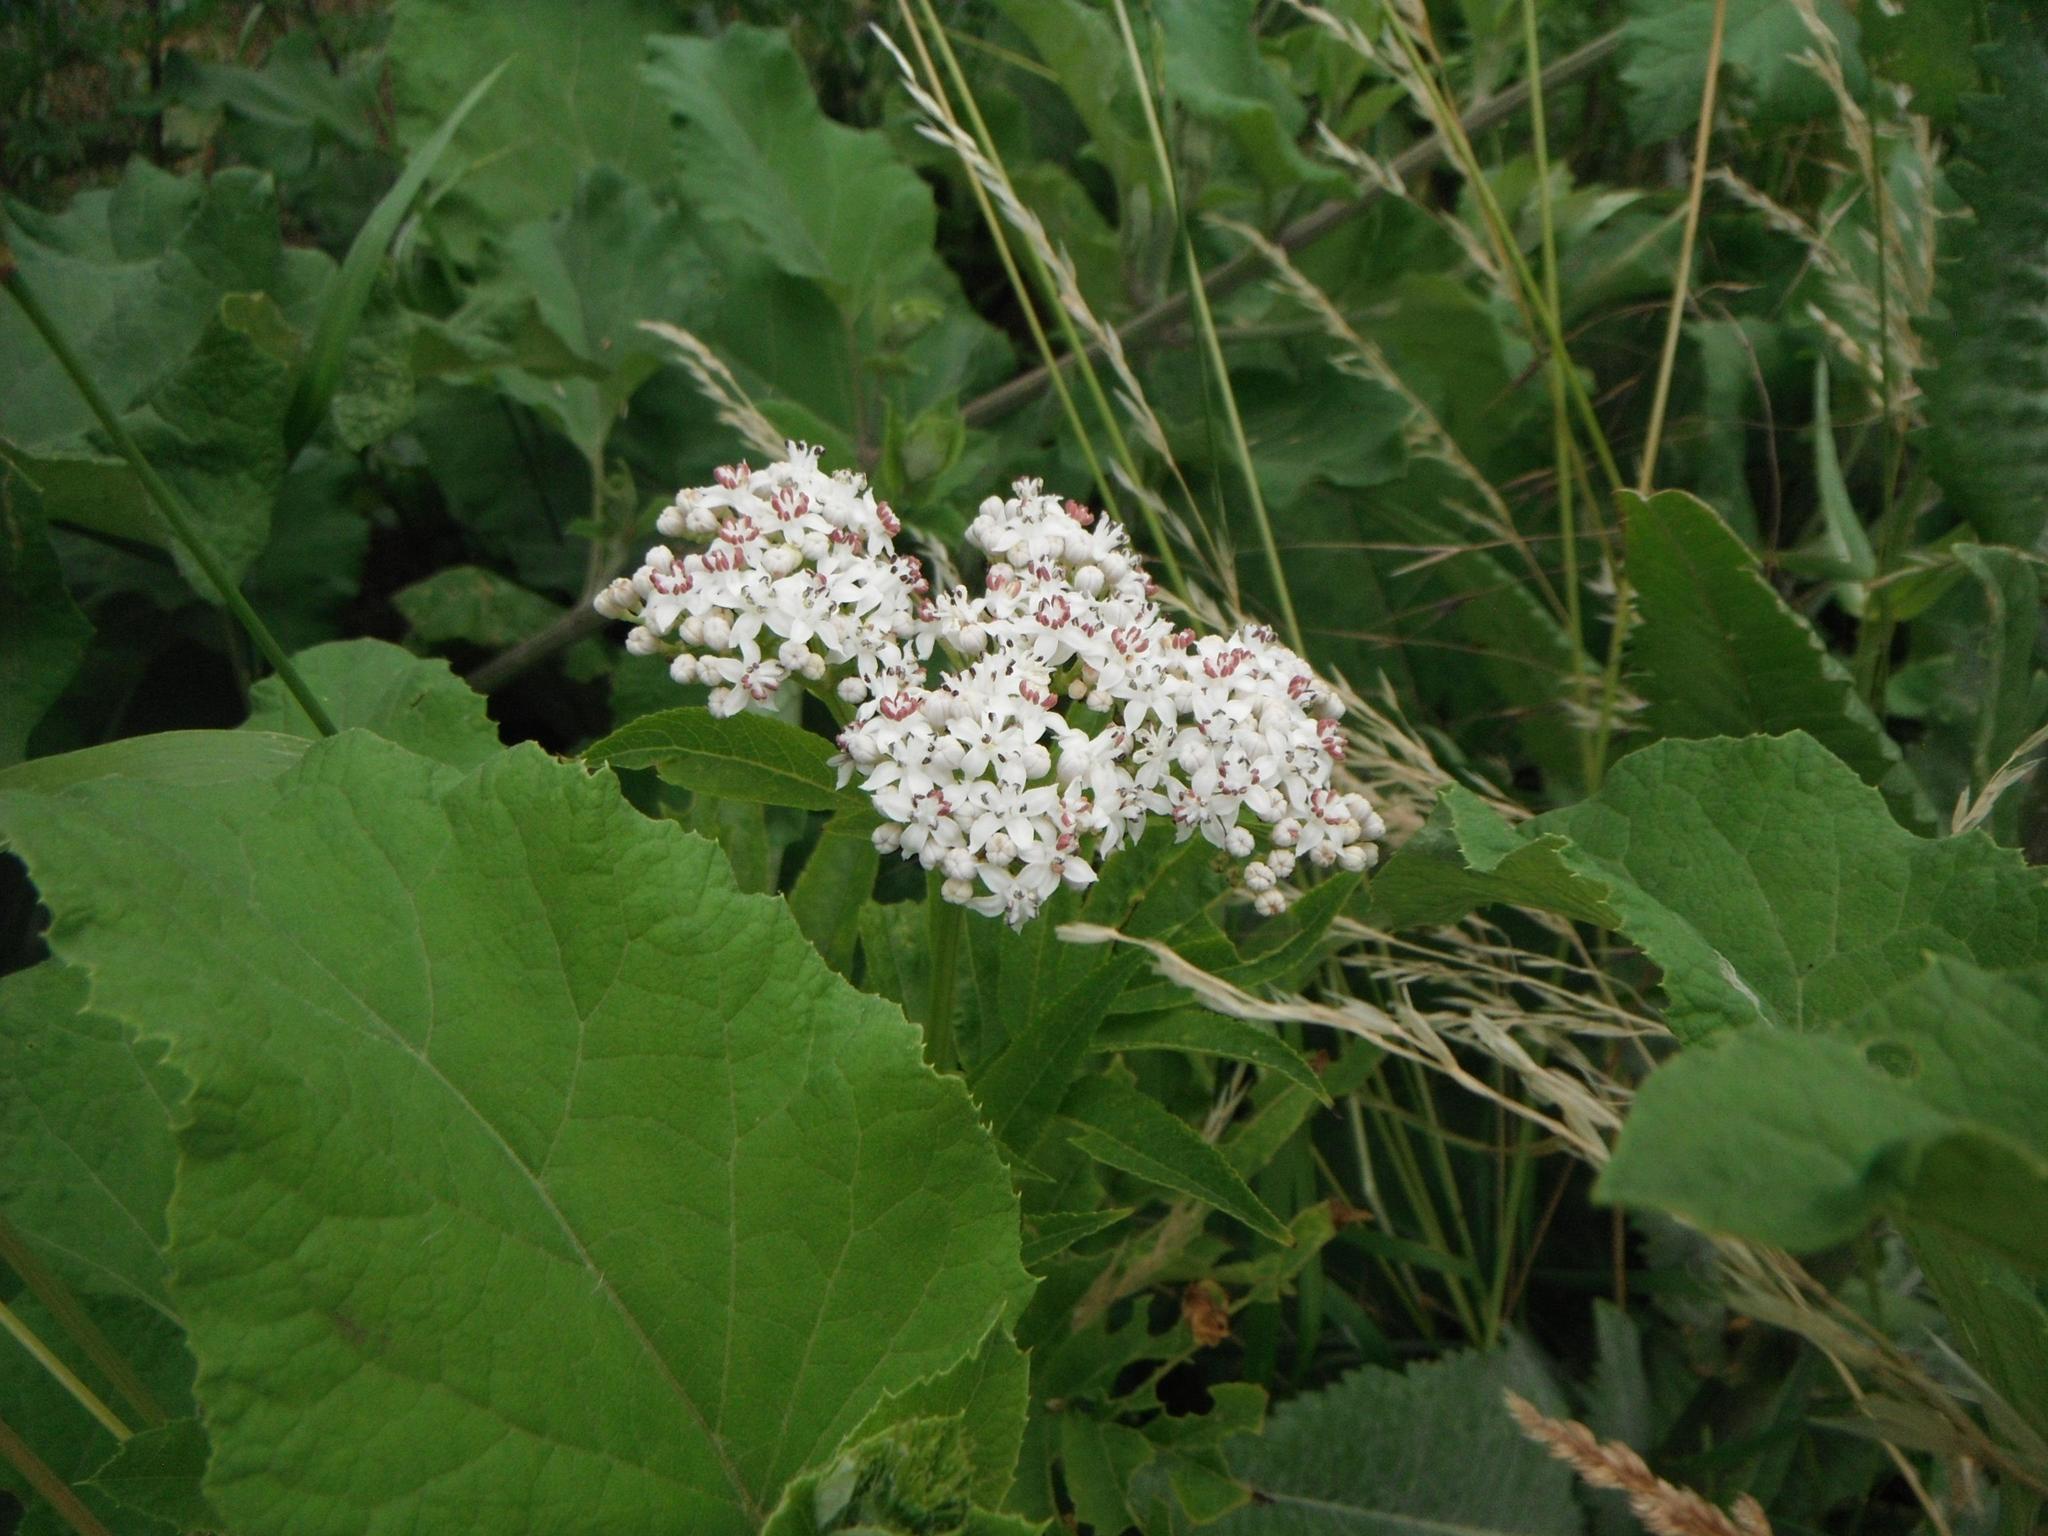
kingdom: Plantae
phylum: Tracheophyta
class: Magnoliopsida
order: Dipsacales
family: Viburnaceae
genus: Sambucus
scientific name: Sambucus ebulus
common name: Dwarf elder
